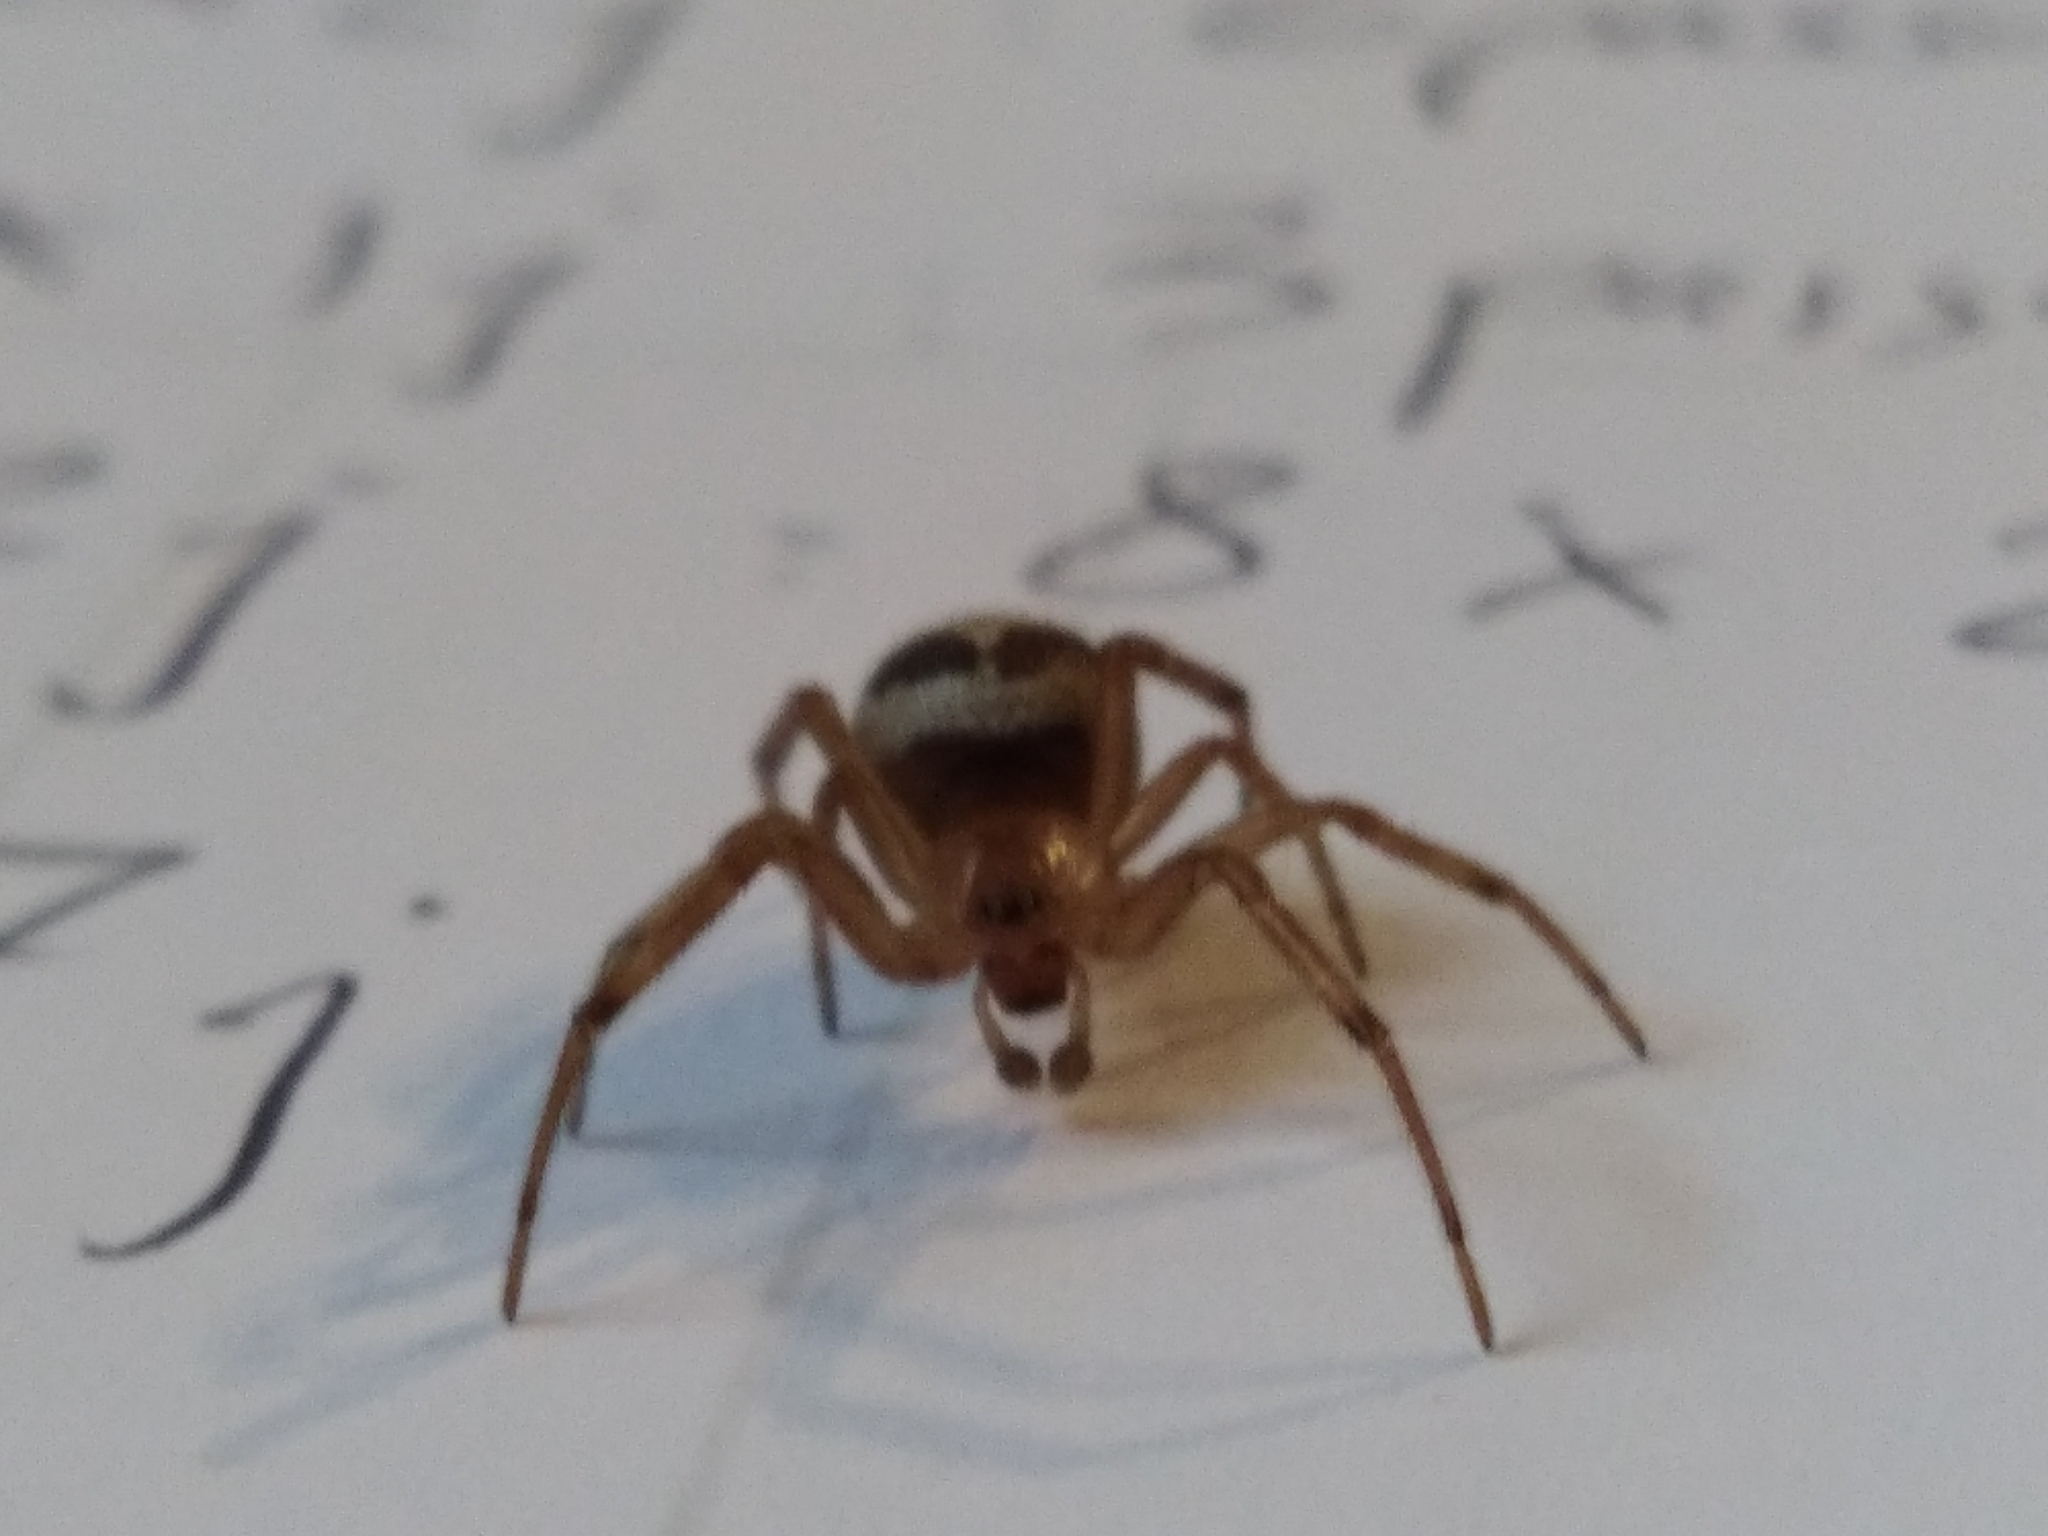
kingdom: Animalia
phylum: Arthropoda
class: Arachnida
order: Araneae
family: Theridiidae
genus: Steatoda
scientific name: Steatoda nobilis
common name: Cobweb weaver
